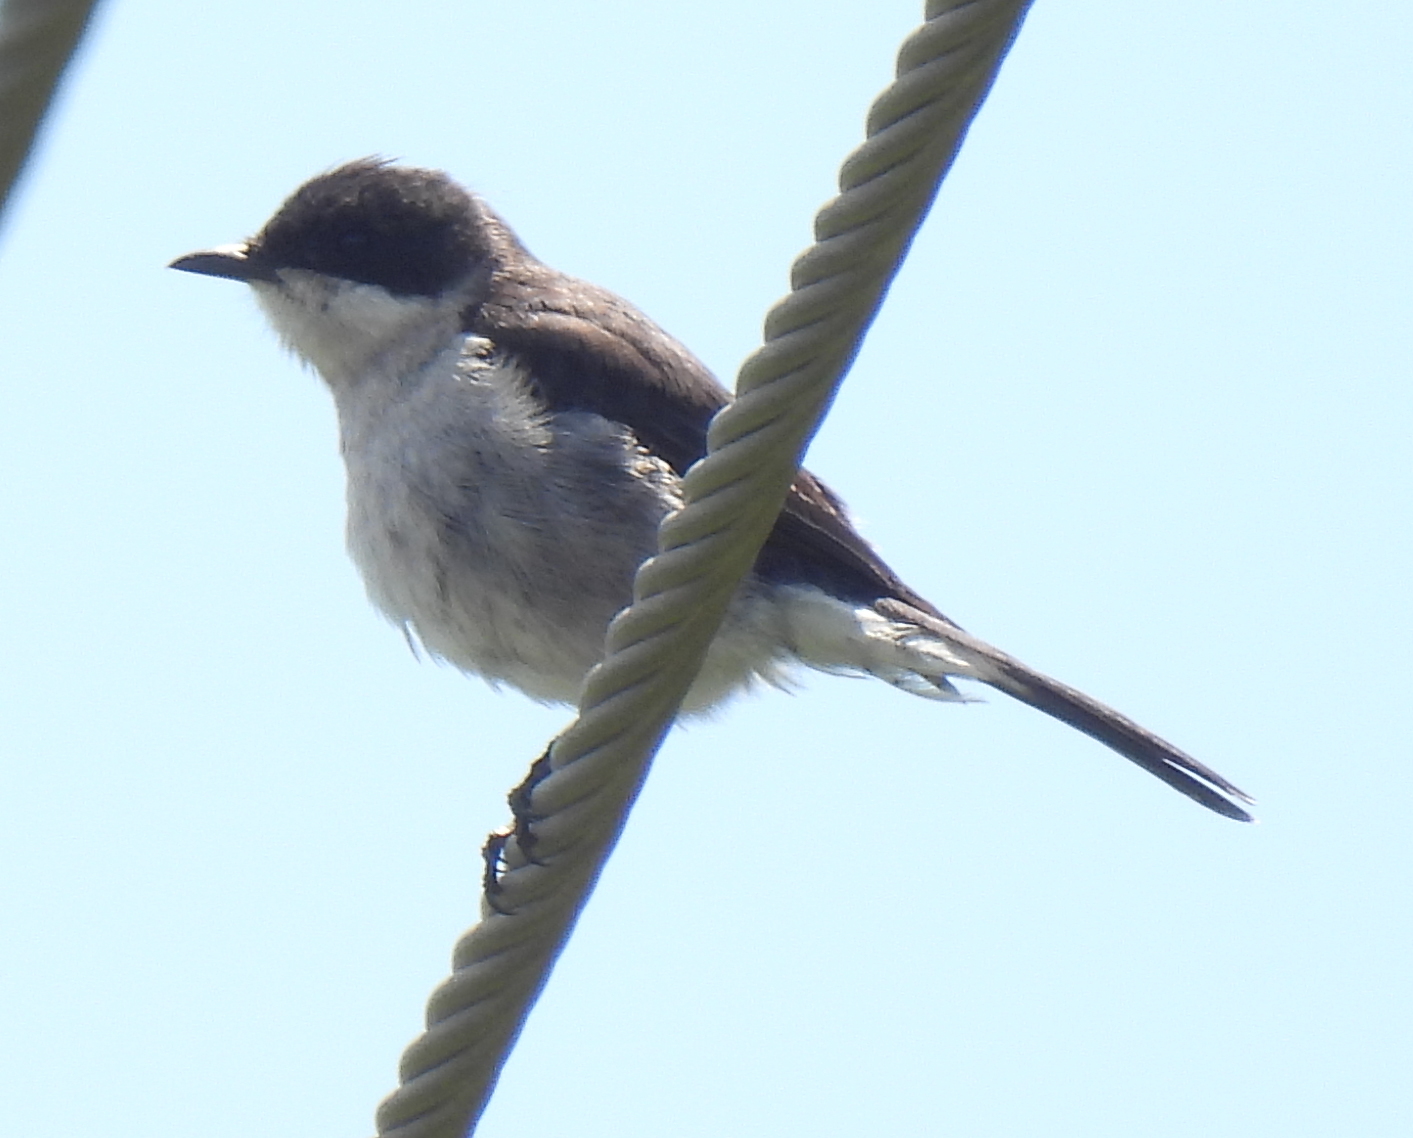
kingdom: Animalia
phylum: Chordata
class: Aves
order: Passeriformes
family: Muscicapidae
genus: Sigelus
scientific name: Sigelus silens
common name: Fiscal flycatcher
